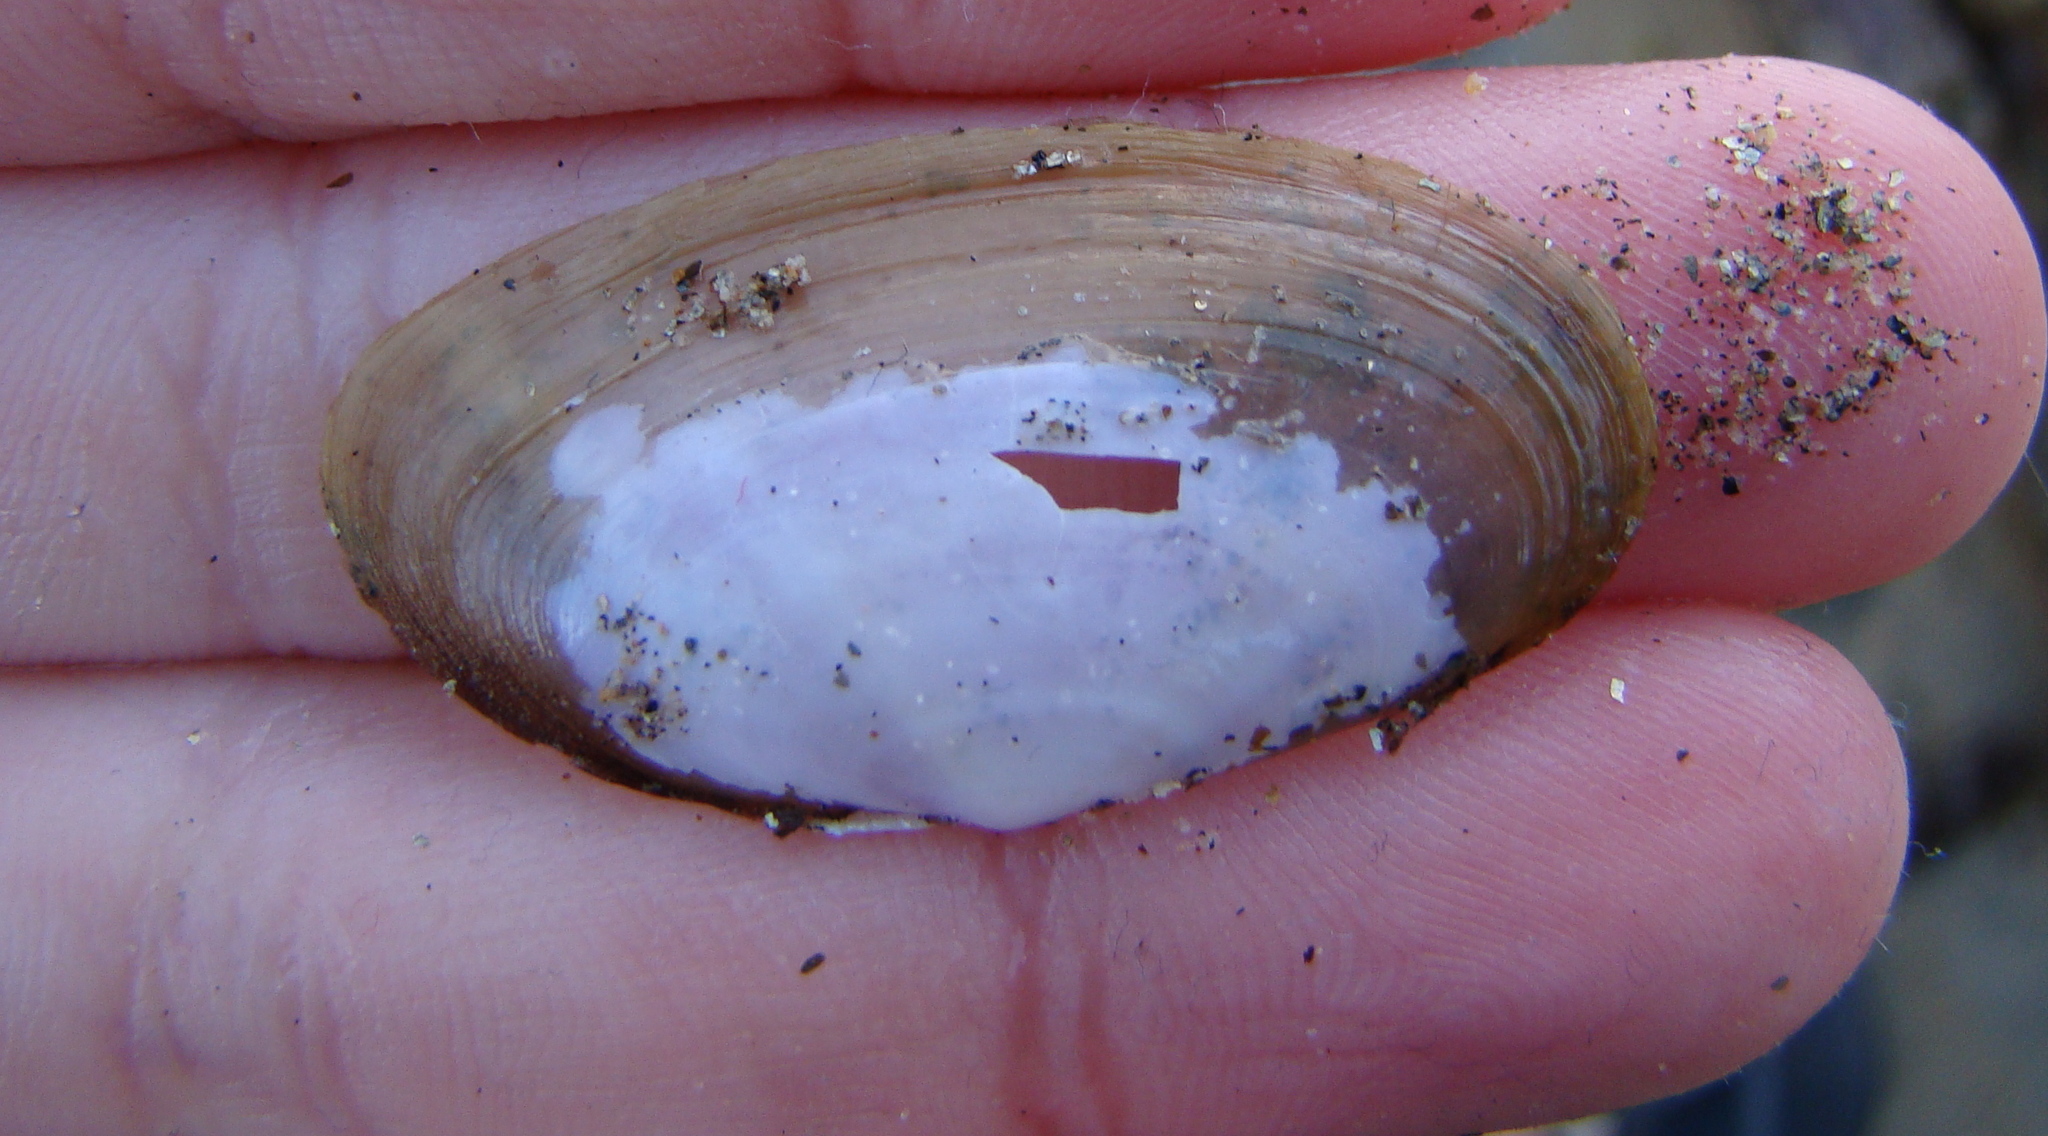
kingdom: Animalia
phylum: Mollusca
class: Bivalvia
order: Cardiida
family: Psammobiidae
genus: Hiatula
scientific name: Hiatula siliquens
